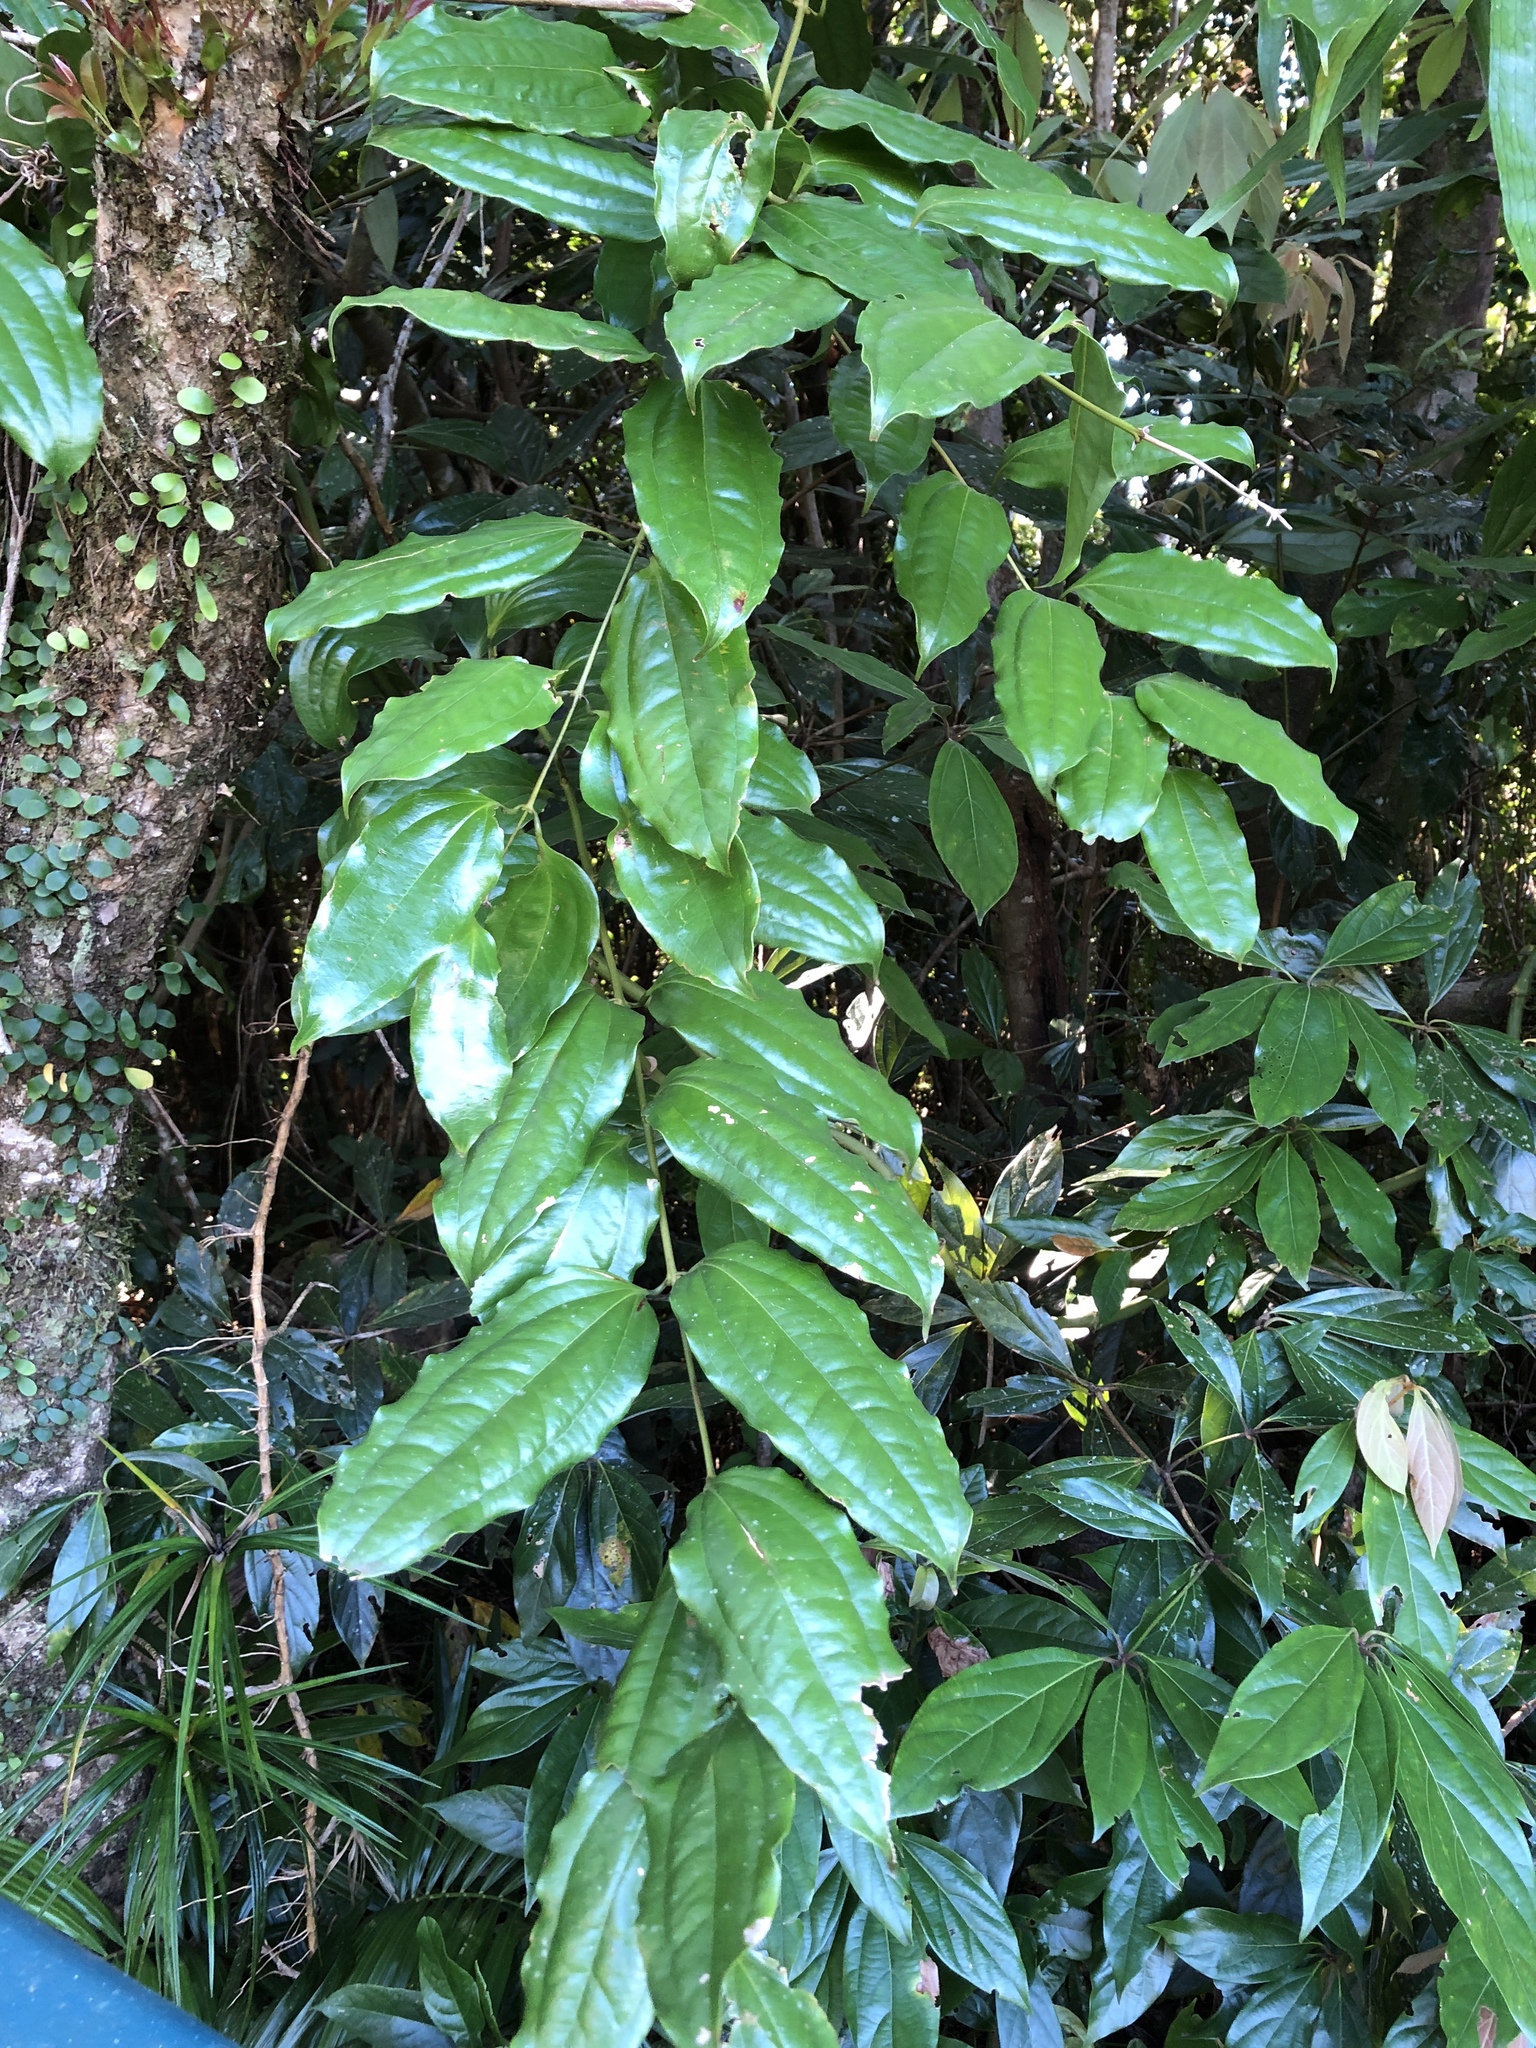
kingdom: Plantae
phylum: Tracheophyta
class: Liliopsida
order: Liliales
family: Ripogonaceae
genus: Ripogonum
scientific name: Ripogonum album
